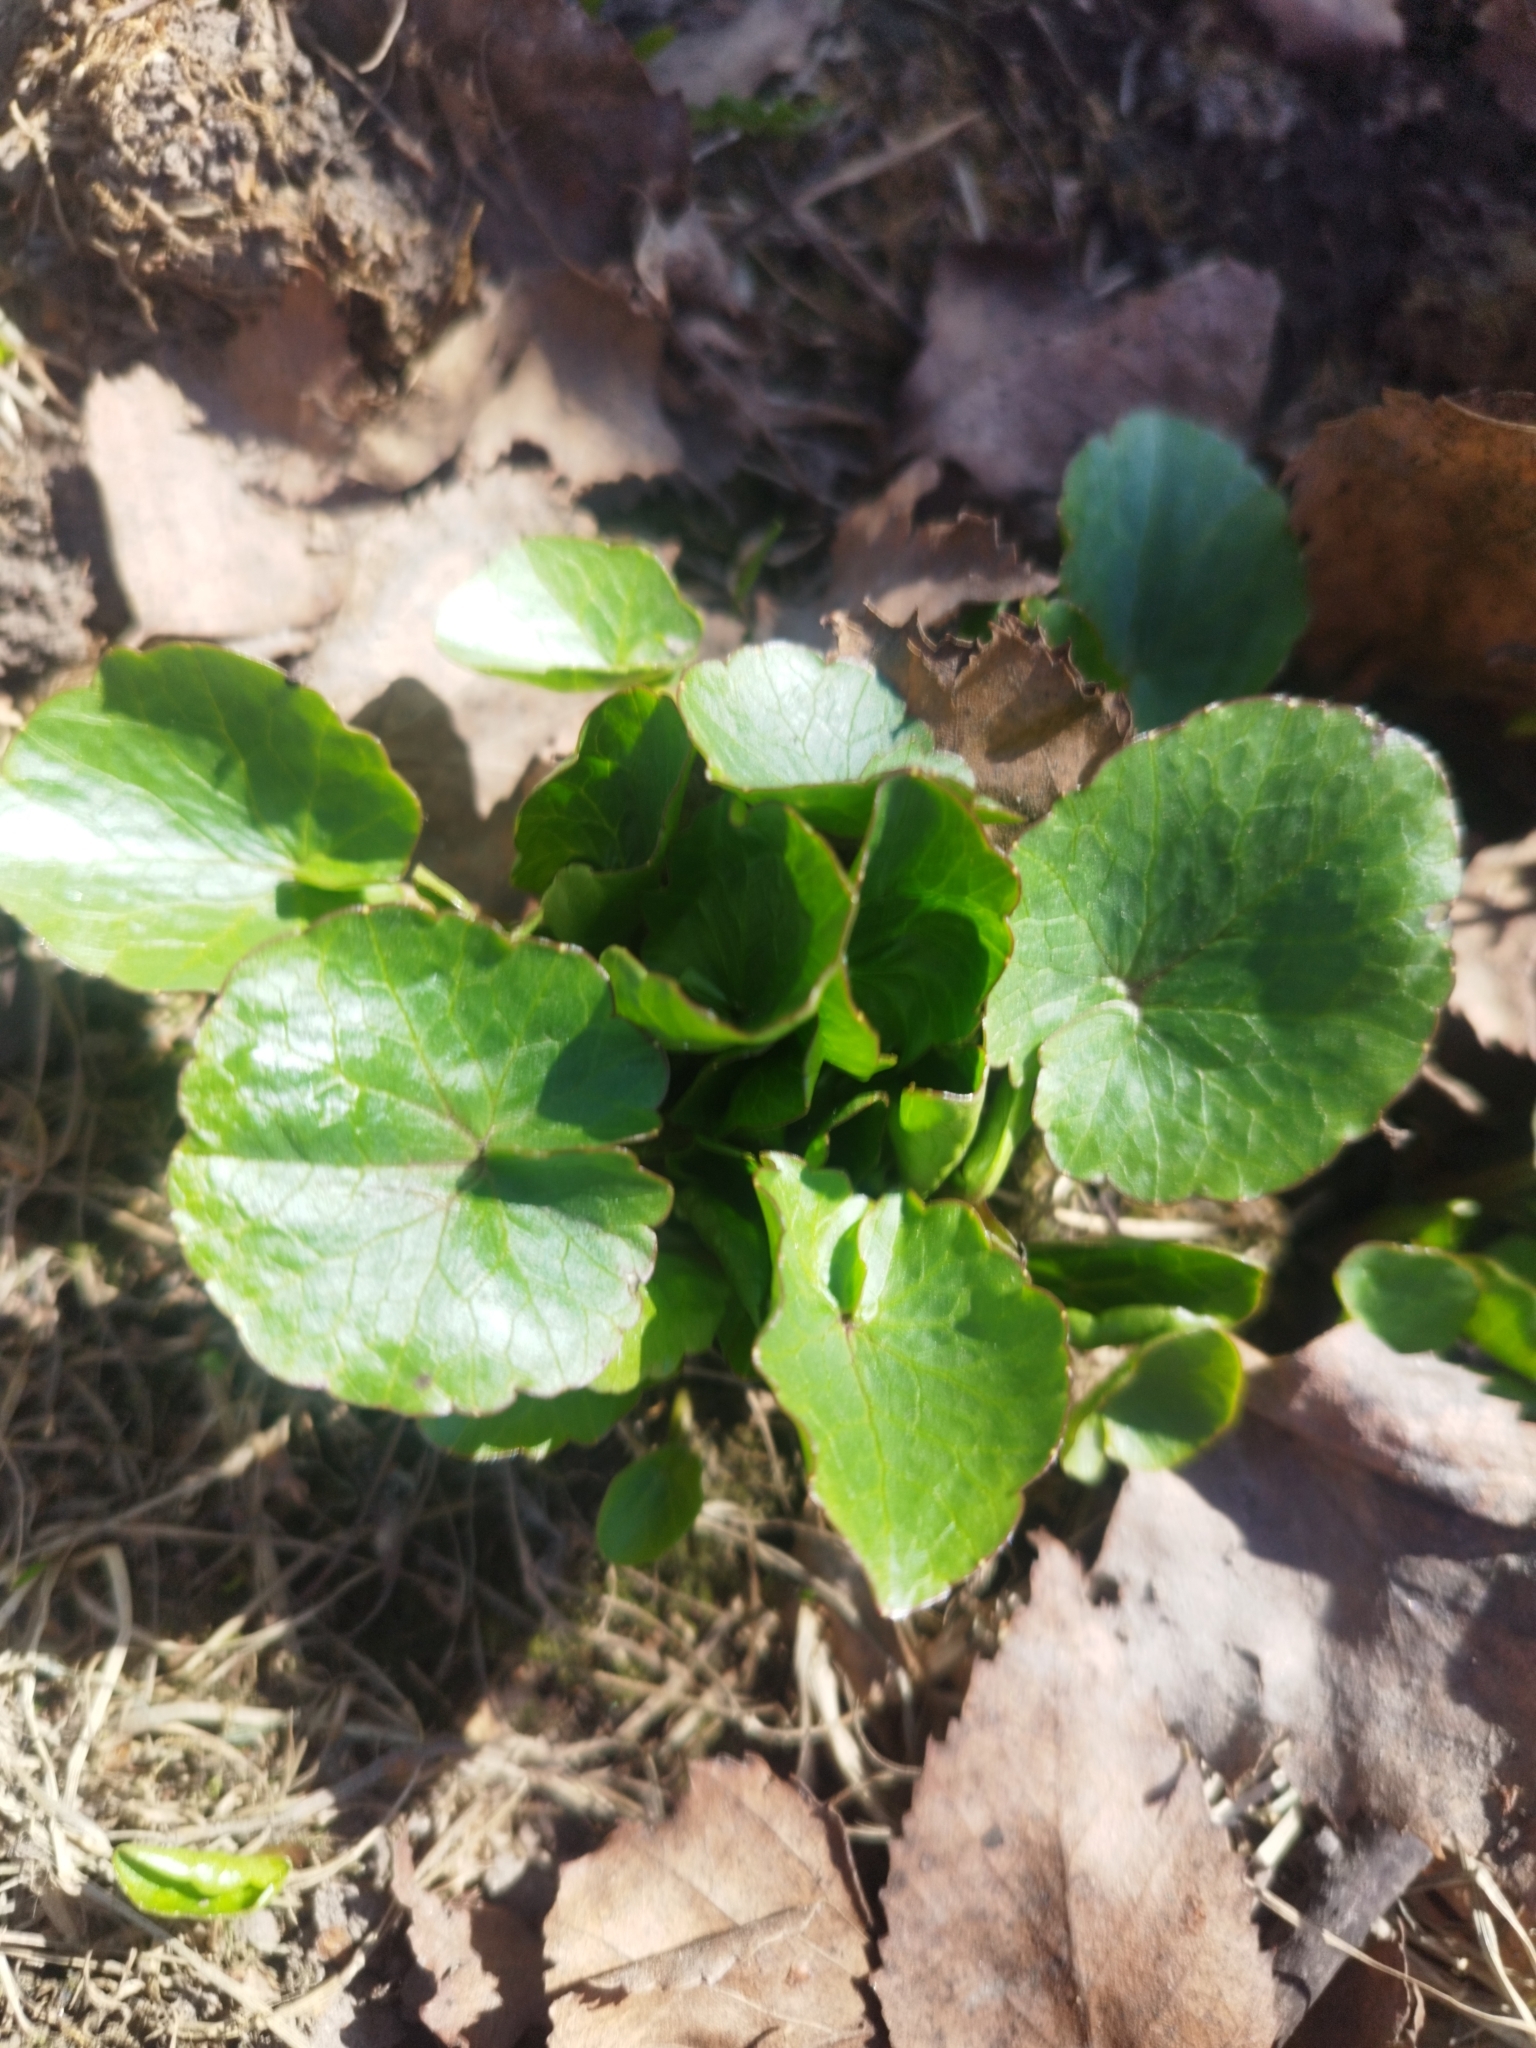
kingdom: Plantae
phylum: Tracheophyta
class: Magnoliopsida
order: Ranunculales
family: Ranunculaceae
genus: Ficaria
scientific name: Ficaria verna
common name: Lesser celandine
